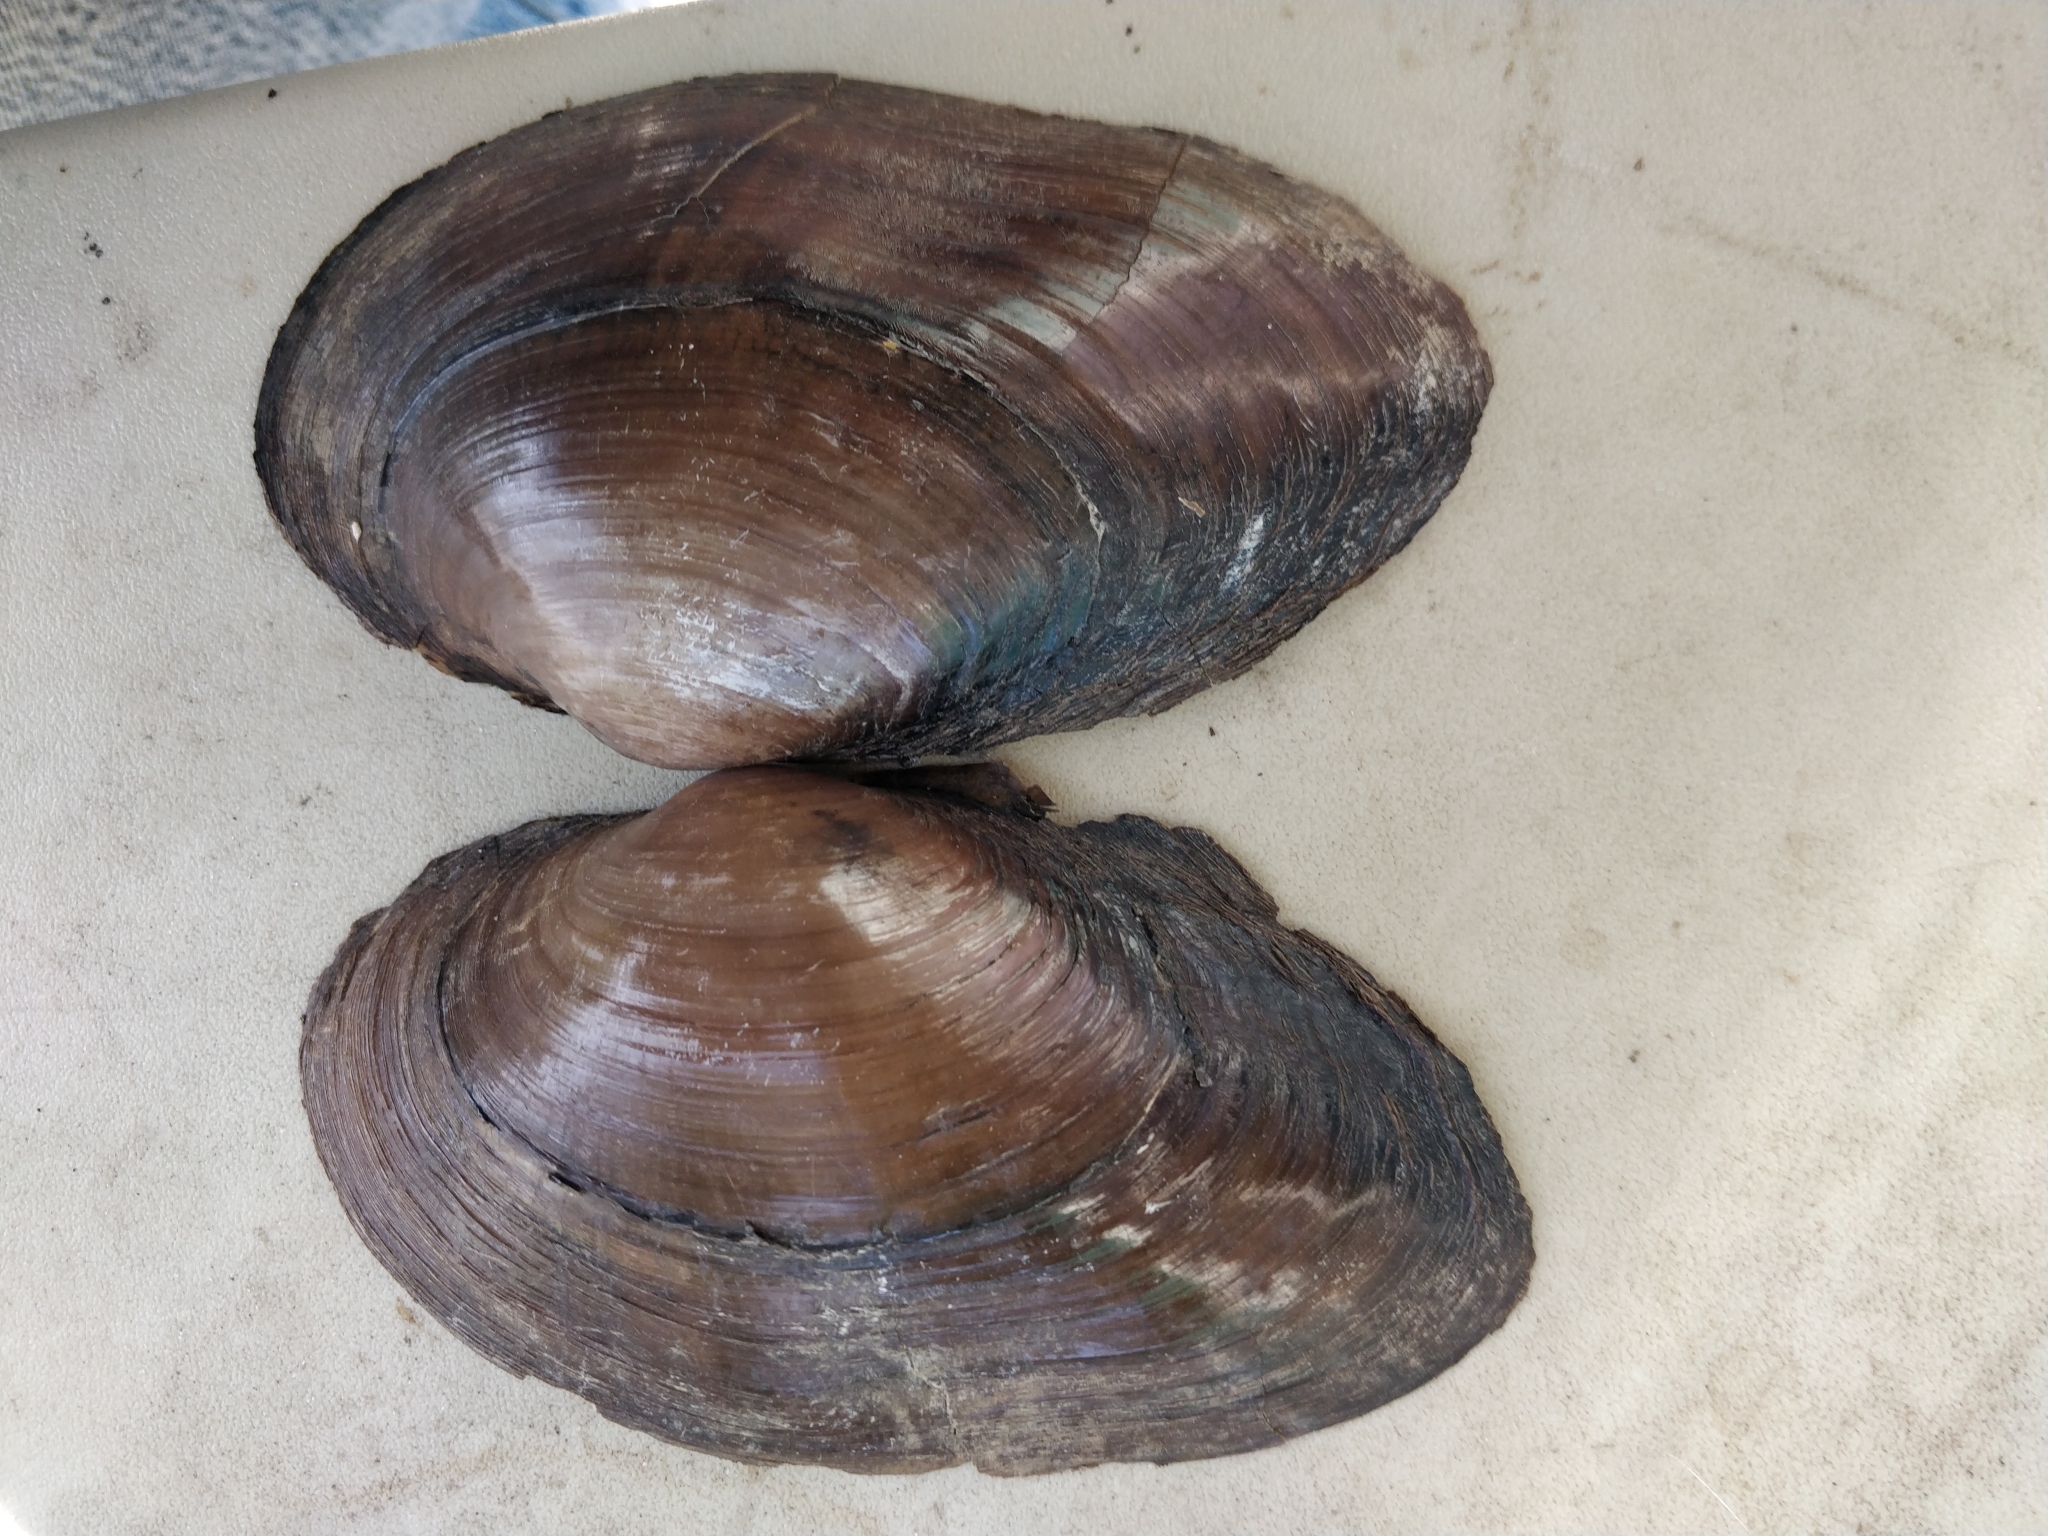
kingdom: Animalia
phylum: Mollusca
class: Bivalvia
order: Unionida
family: Unionidae
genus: Pyganodon
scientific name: Pyganodon grandis
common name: Giant floater
